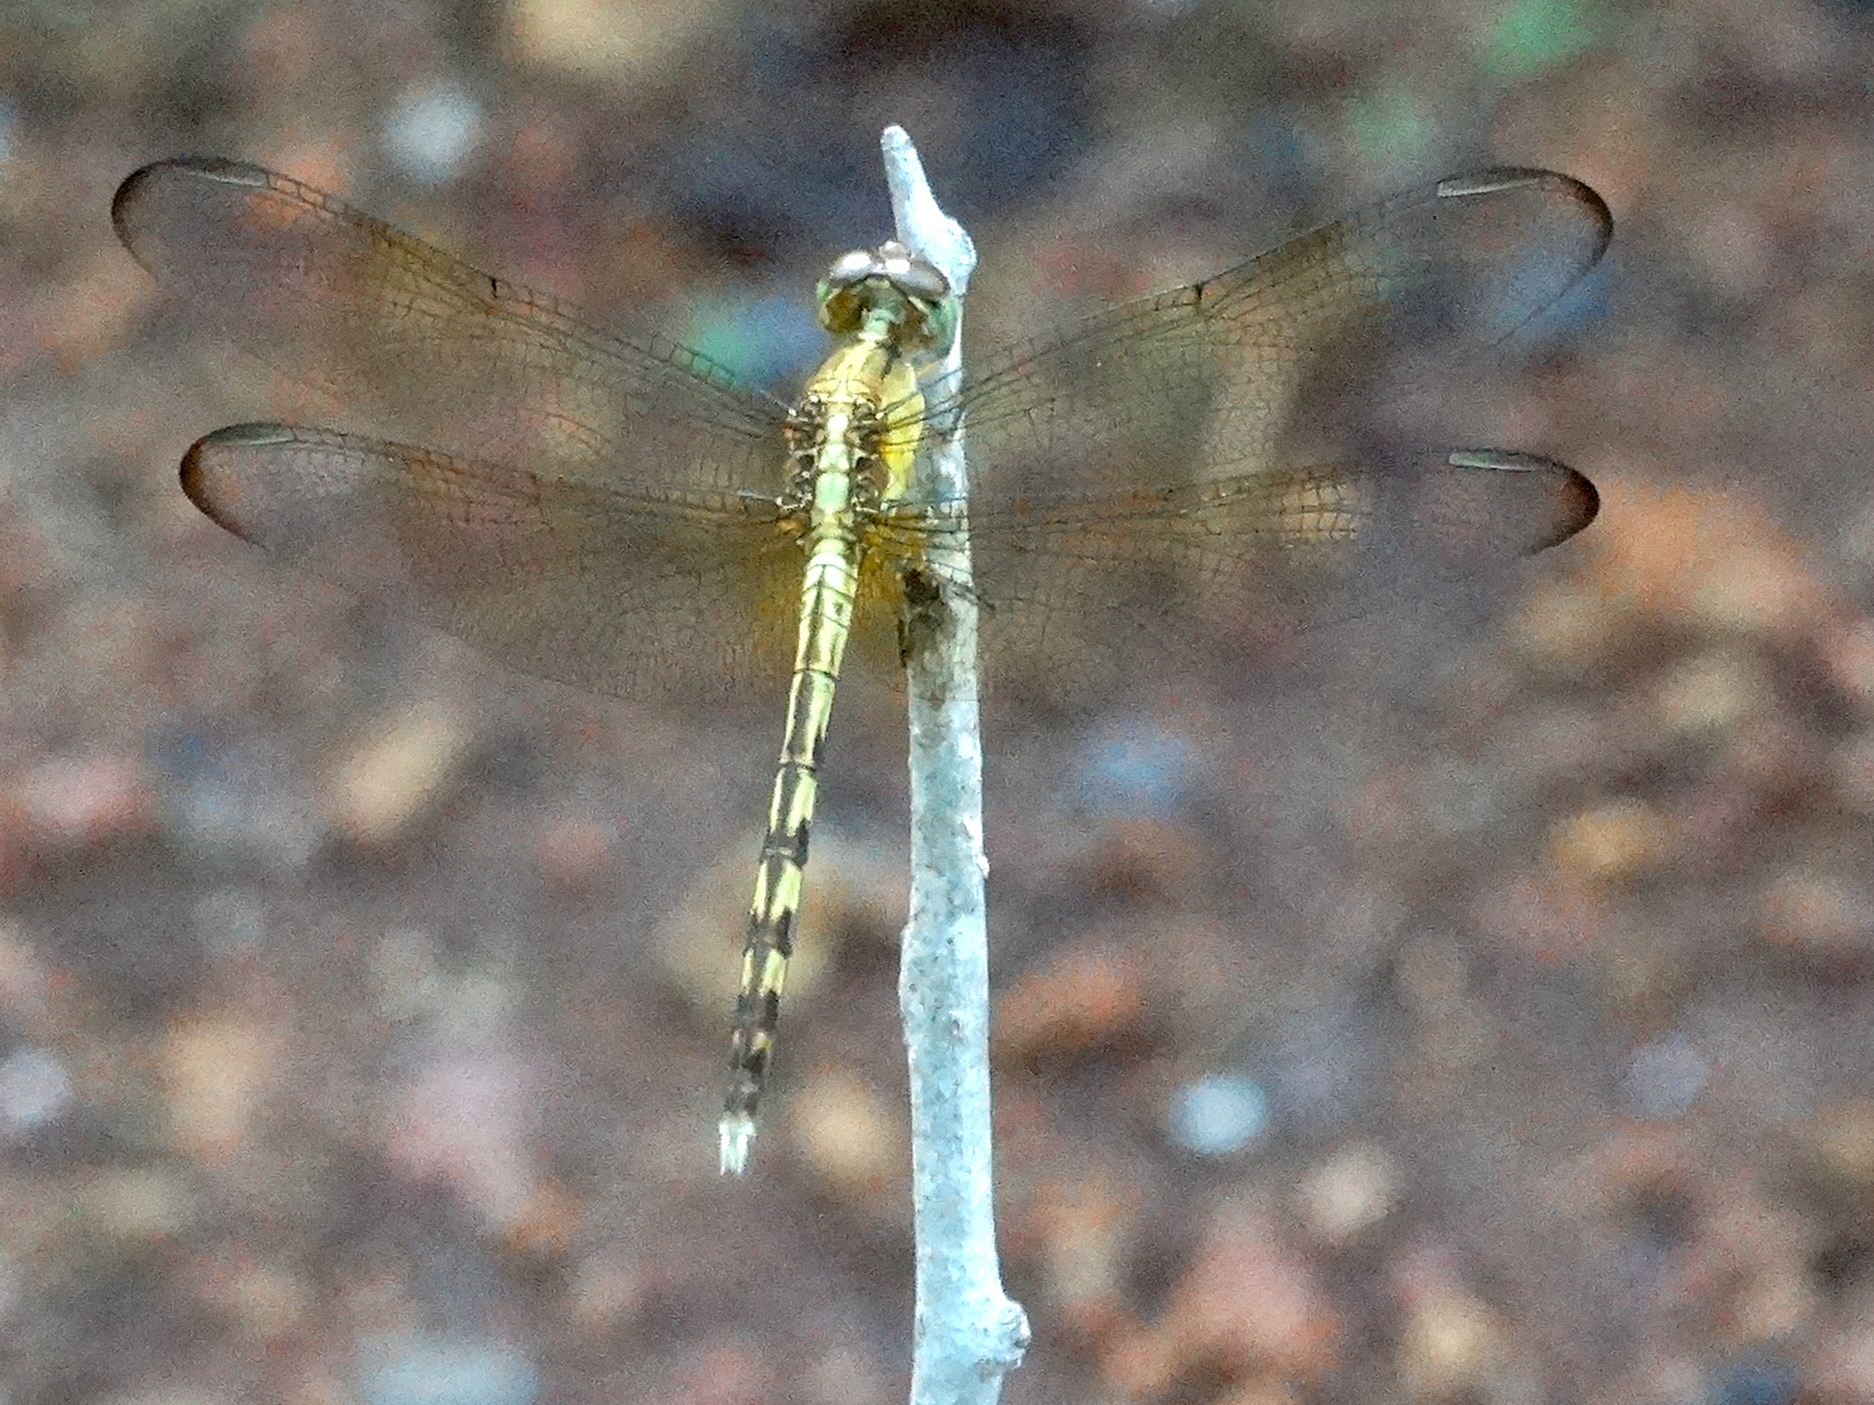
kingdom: Animalia
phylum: Arthropoda
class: Insecta
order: Odonata
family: Libellulidae
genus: Erythrodiplax
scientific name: Erythrodiplax funerea
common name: Black-winged dragonlet
